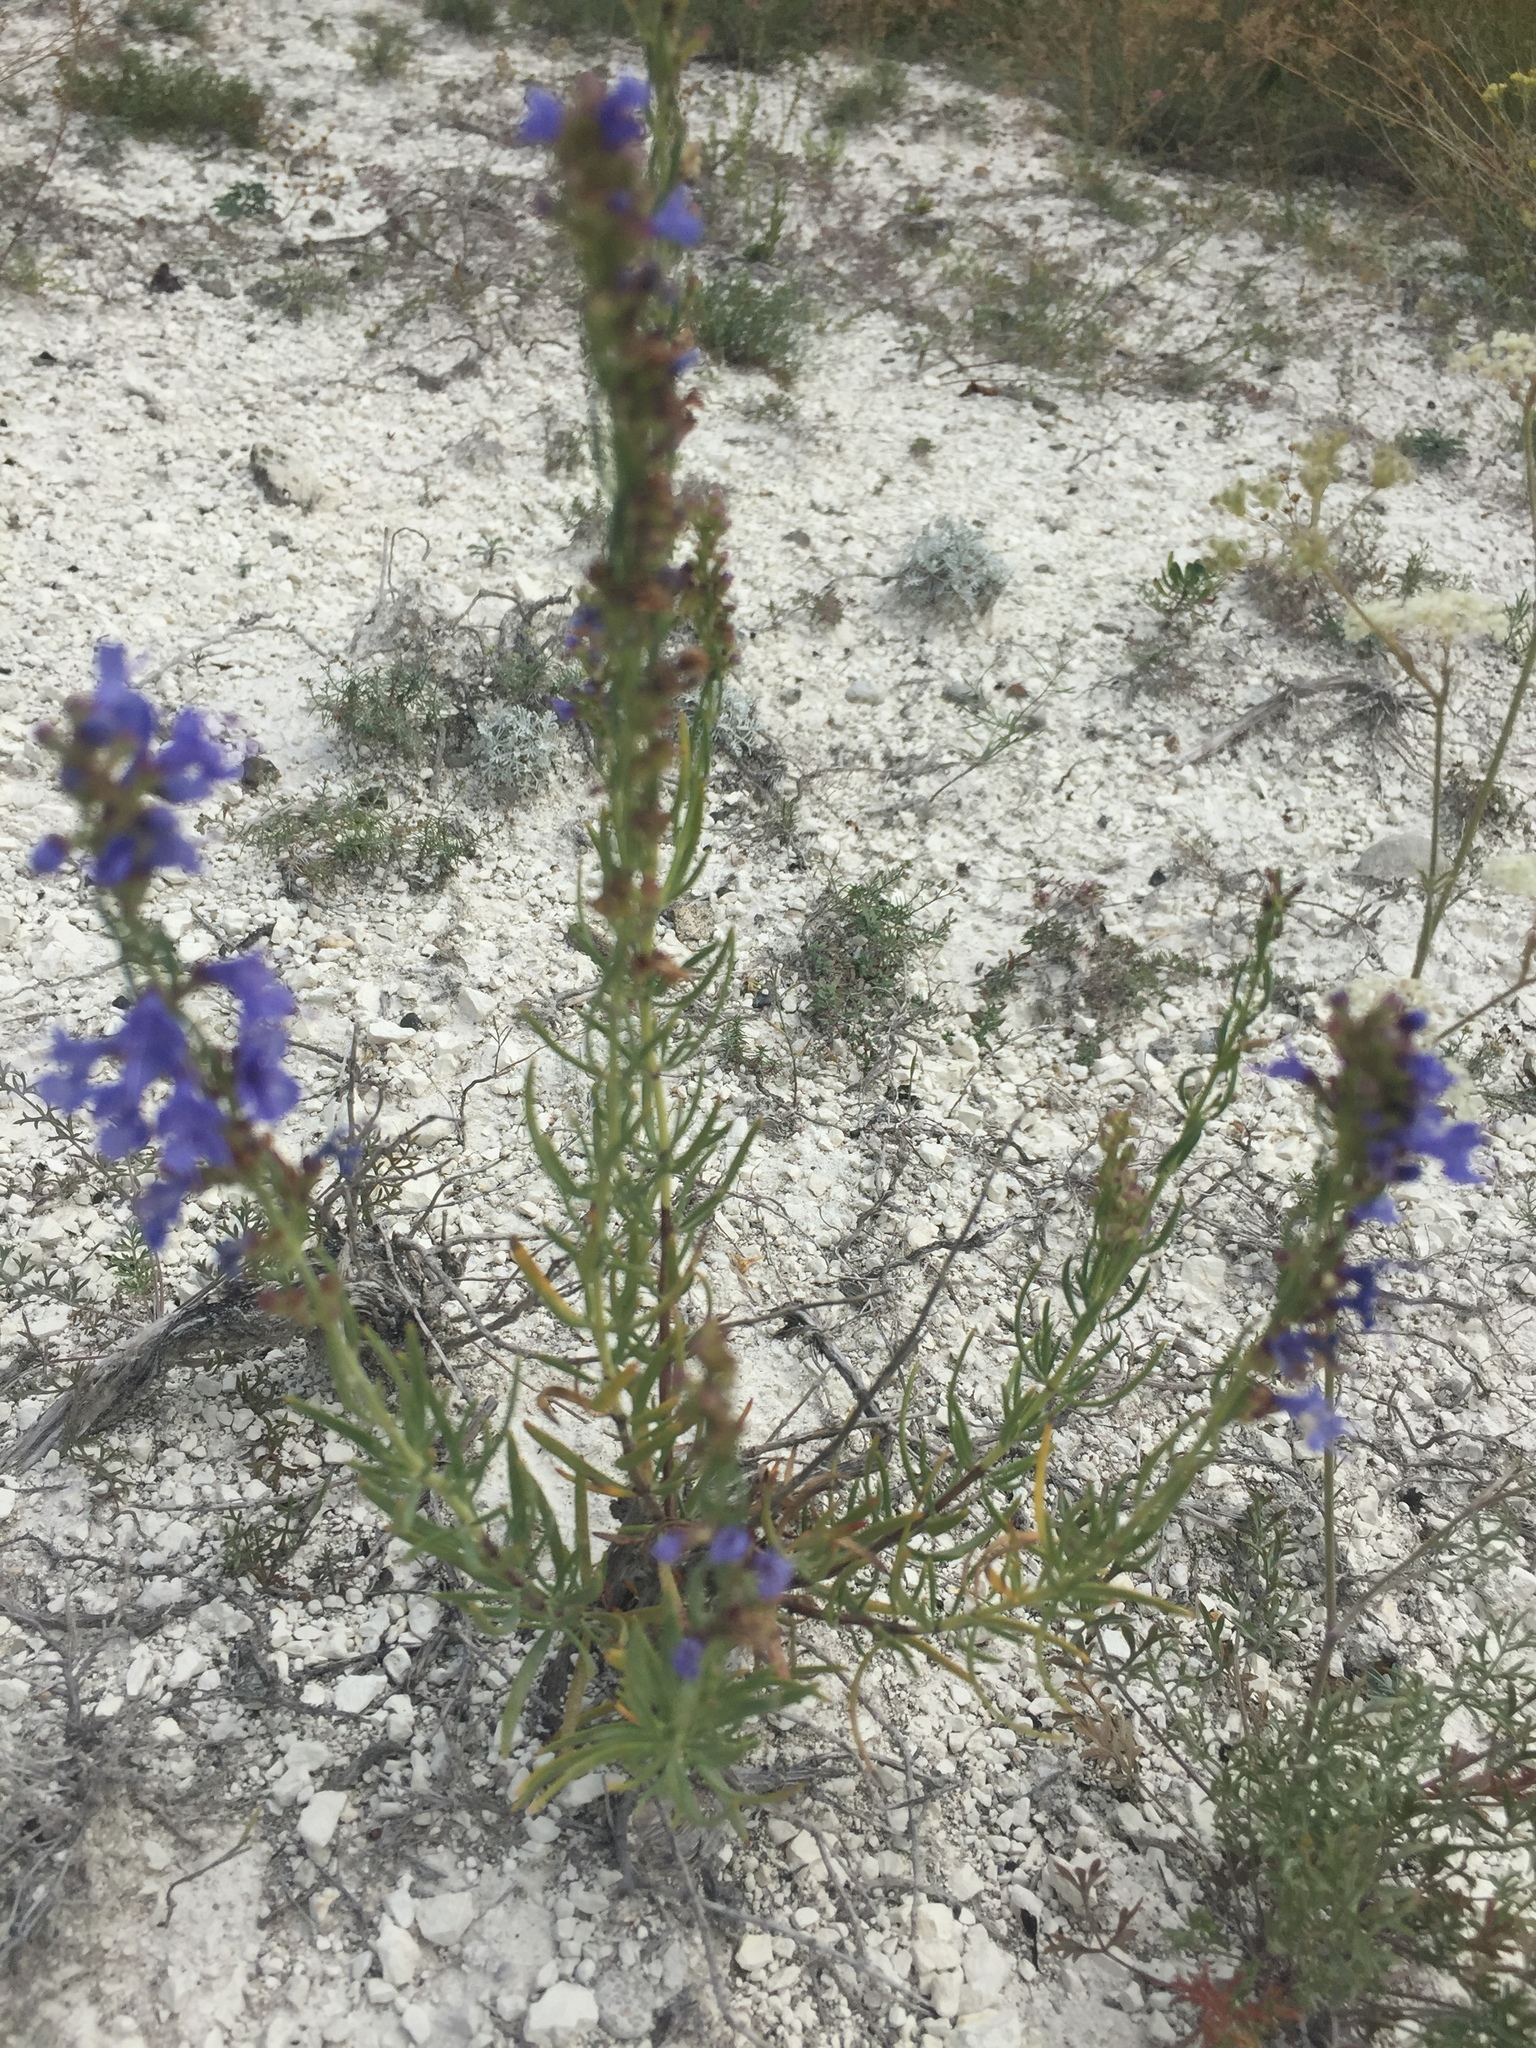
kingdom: Plantae
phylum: Tracheophyta
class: Magnoliopsida
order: Lamiales
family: Lamiaceae
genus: Hyssopus
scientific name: Hyssopus officinalis
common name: Hyssop
